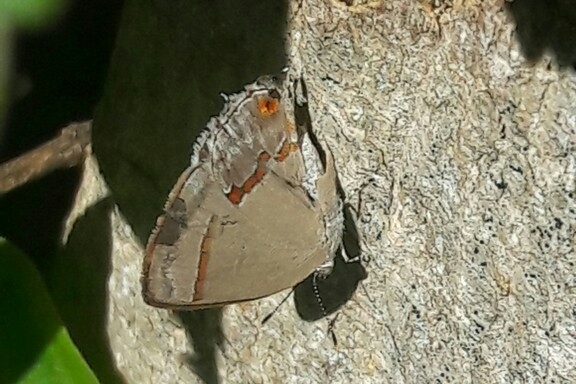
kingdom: Animalia
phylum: Arthropoda
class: Insecta
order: Lepidoptera
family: Lycaenidae
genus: Thecla
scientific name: Thecla besidia
